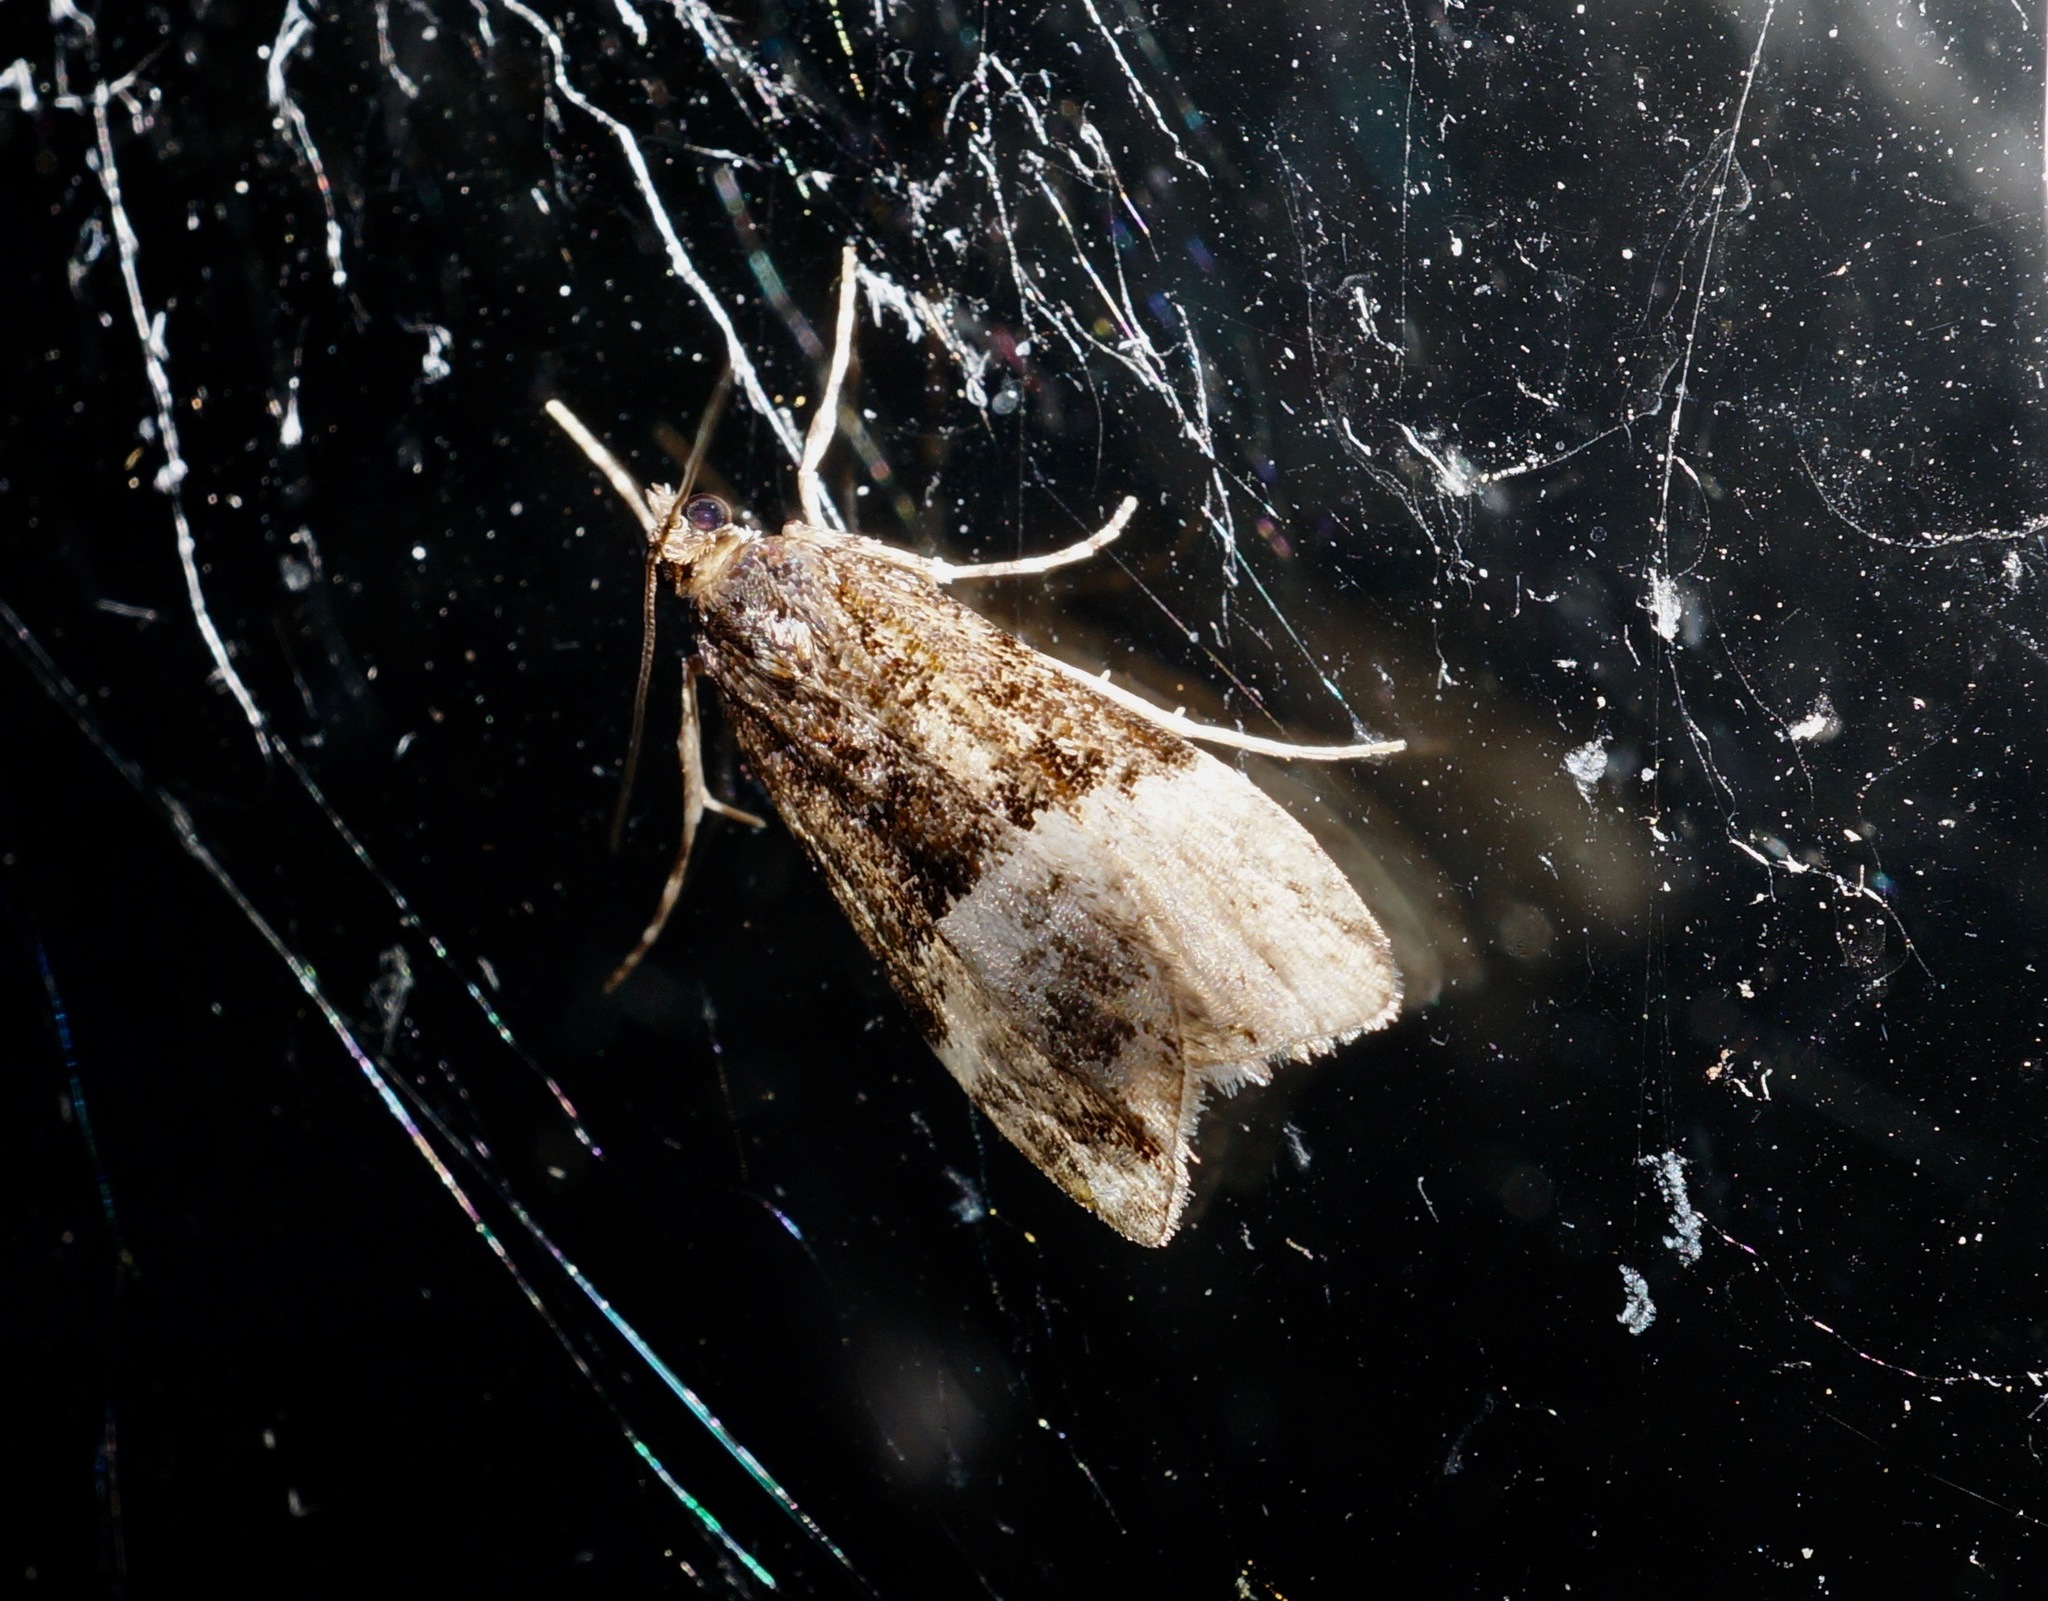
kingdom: Animalia
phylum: Arthropoda
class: Insecta
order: Lepidoptera
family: Crambidae
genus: Scoparia
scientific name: Scoparia minusculalis
